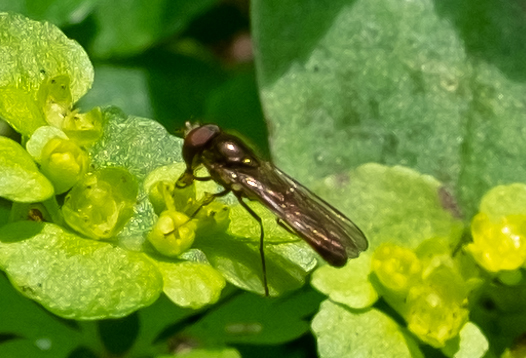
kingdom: Animalia
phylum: Arthropoda
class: Insecta
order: Diptera
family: Syrphidae
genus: Melanostoma
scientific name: Melanostoma scalare
